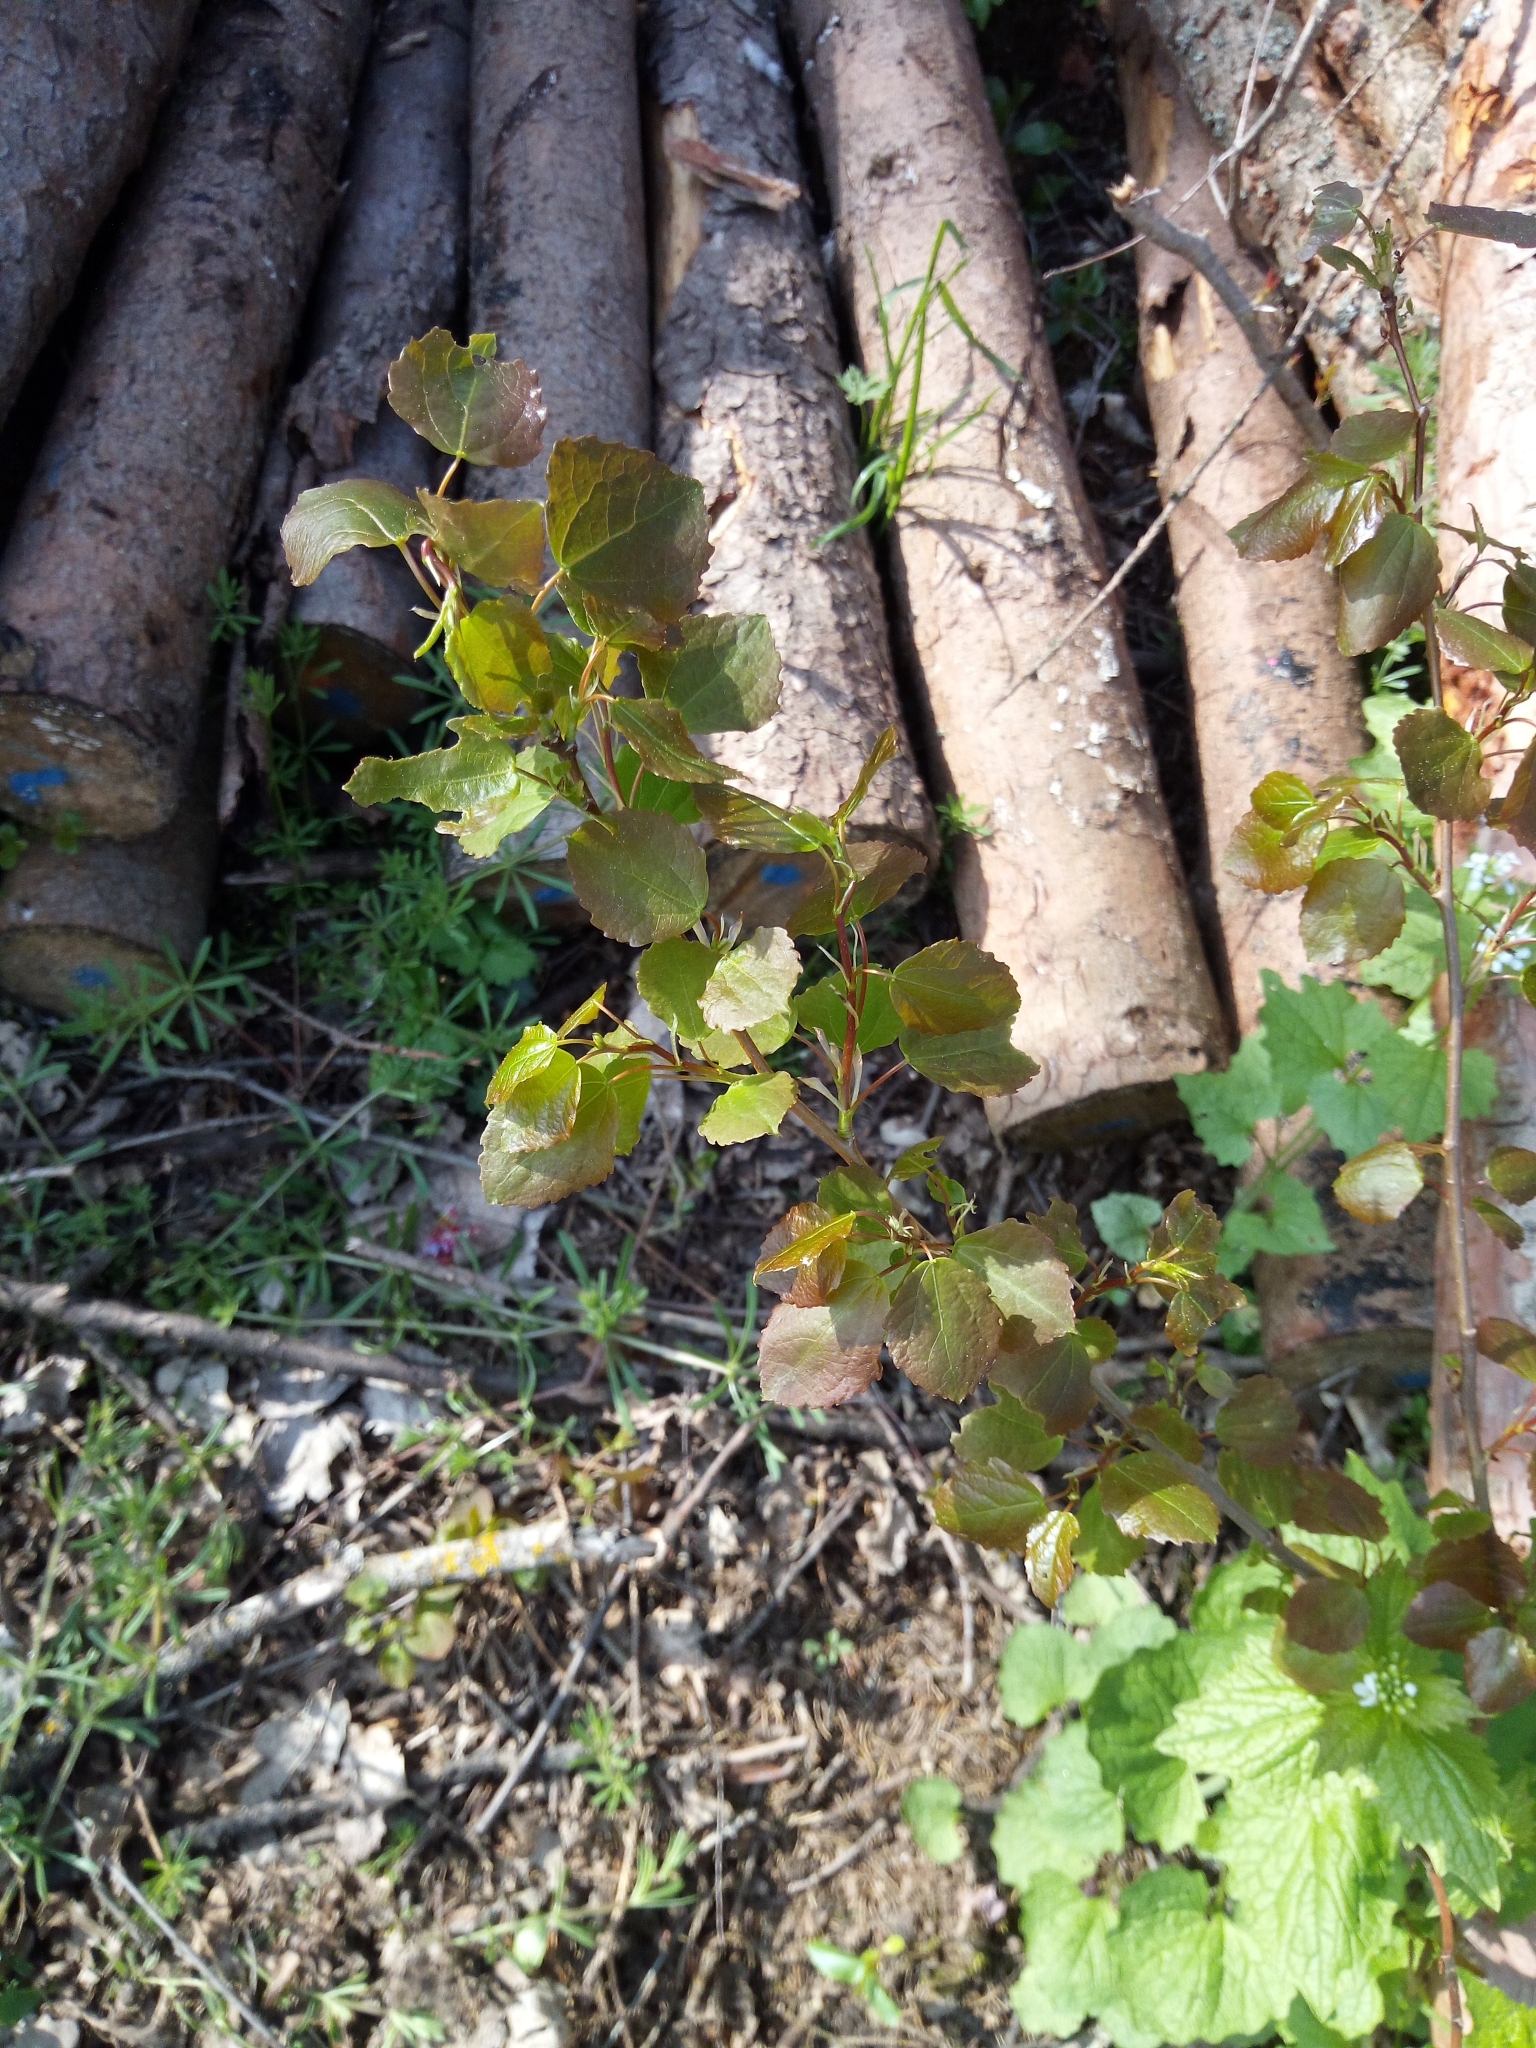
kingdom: Plantae
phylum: Tracheophyta
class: Magnoliopsida
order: Malpighiales
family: Salicaceae
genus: Populus
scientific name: Populus tremula
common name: European aspen
